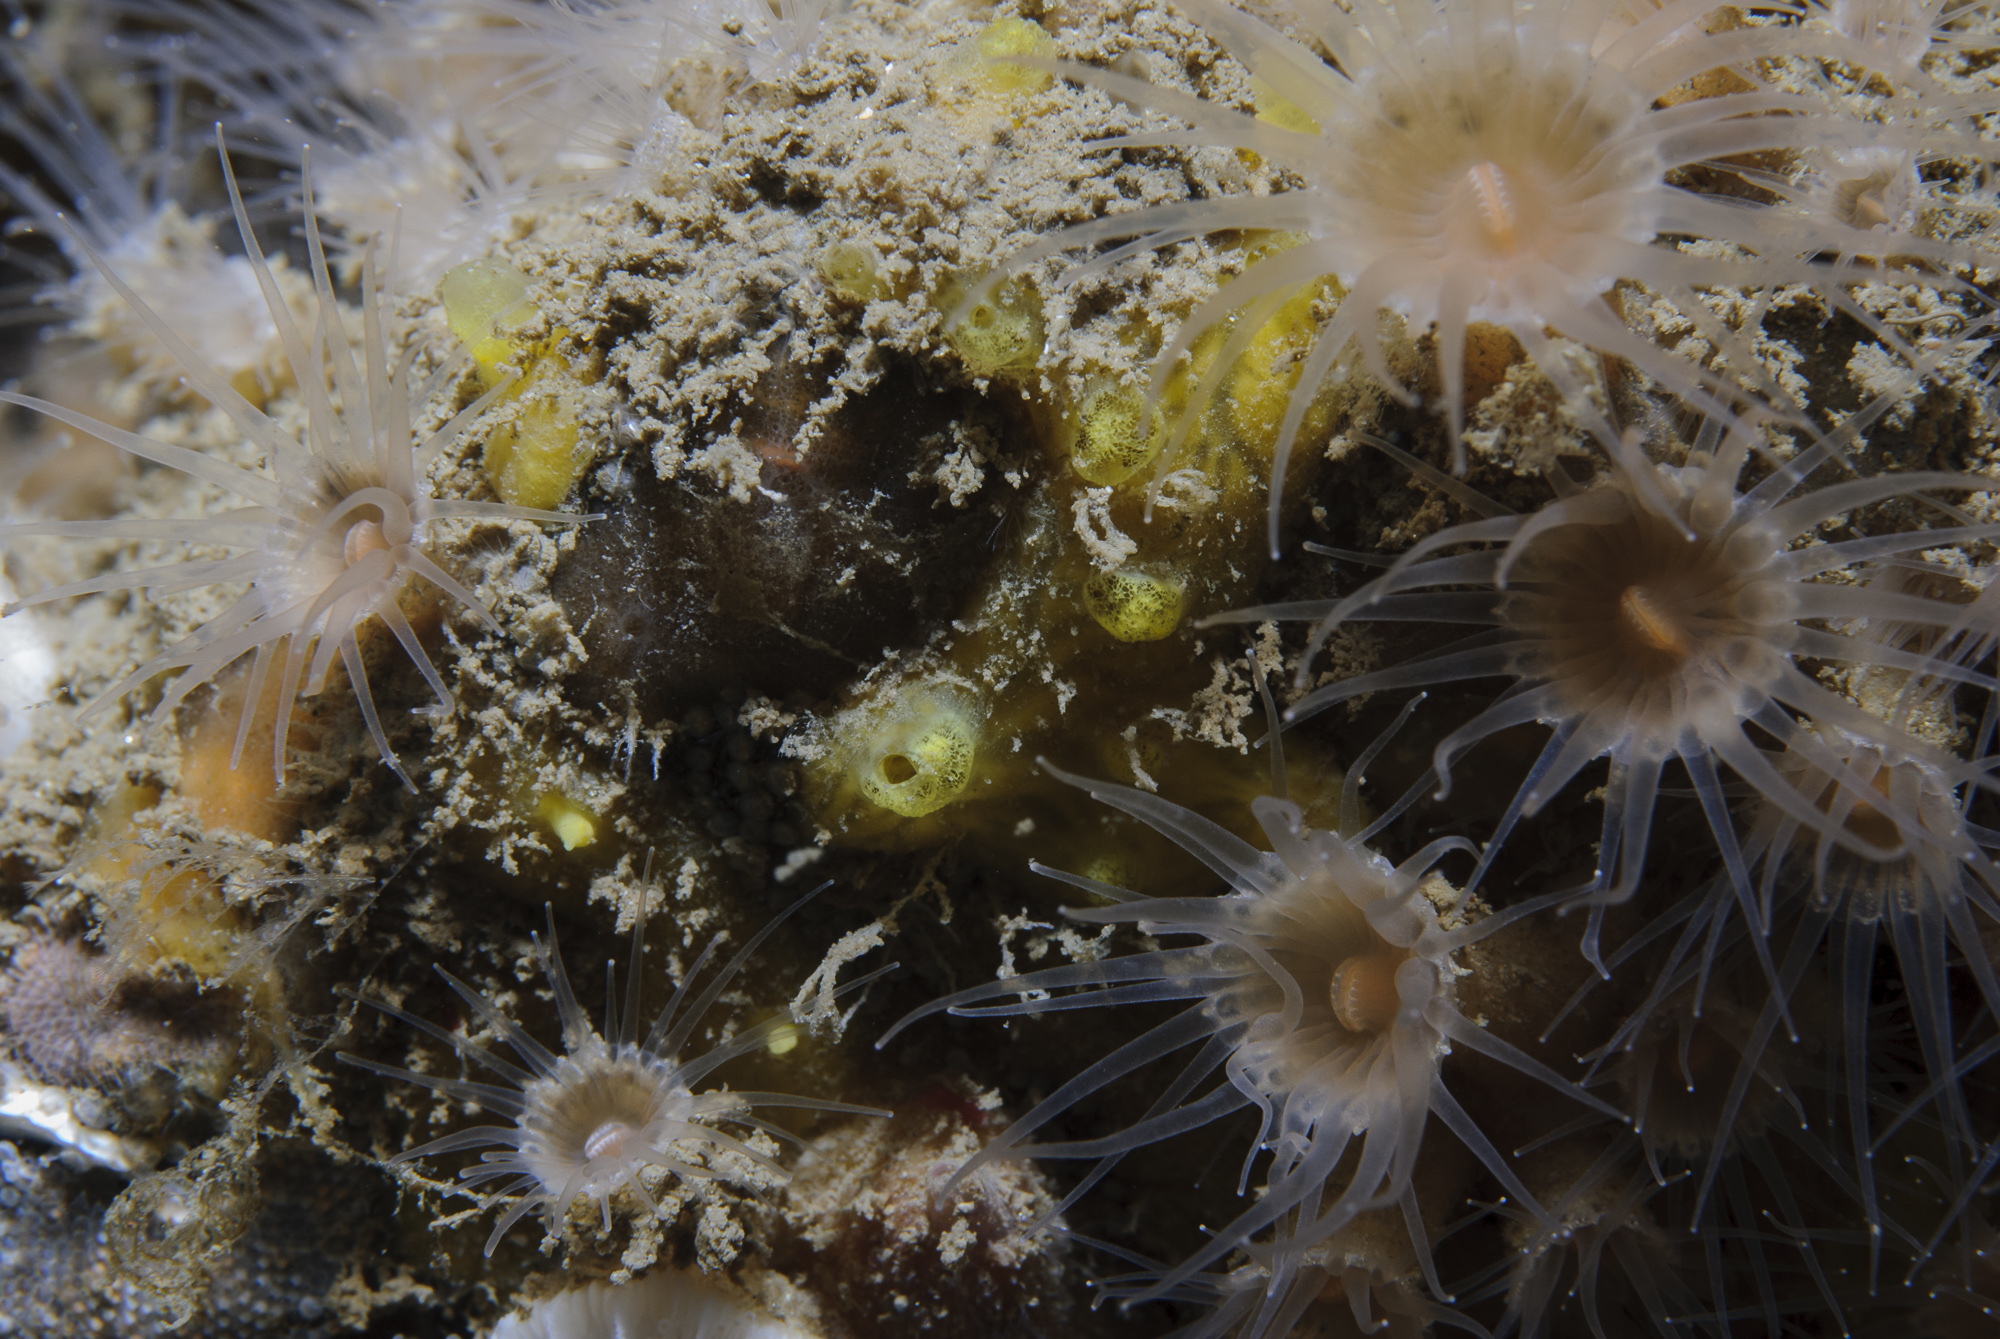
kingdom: Animalia
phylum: Porifera
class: Demospongiae
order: Poecilosclerida
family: Hymedesmiidae
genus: Hymedesmia
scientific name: Hymedesmia rathlinia
